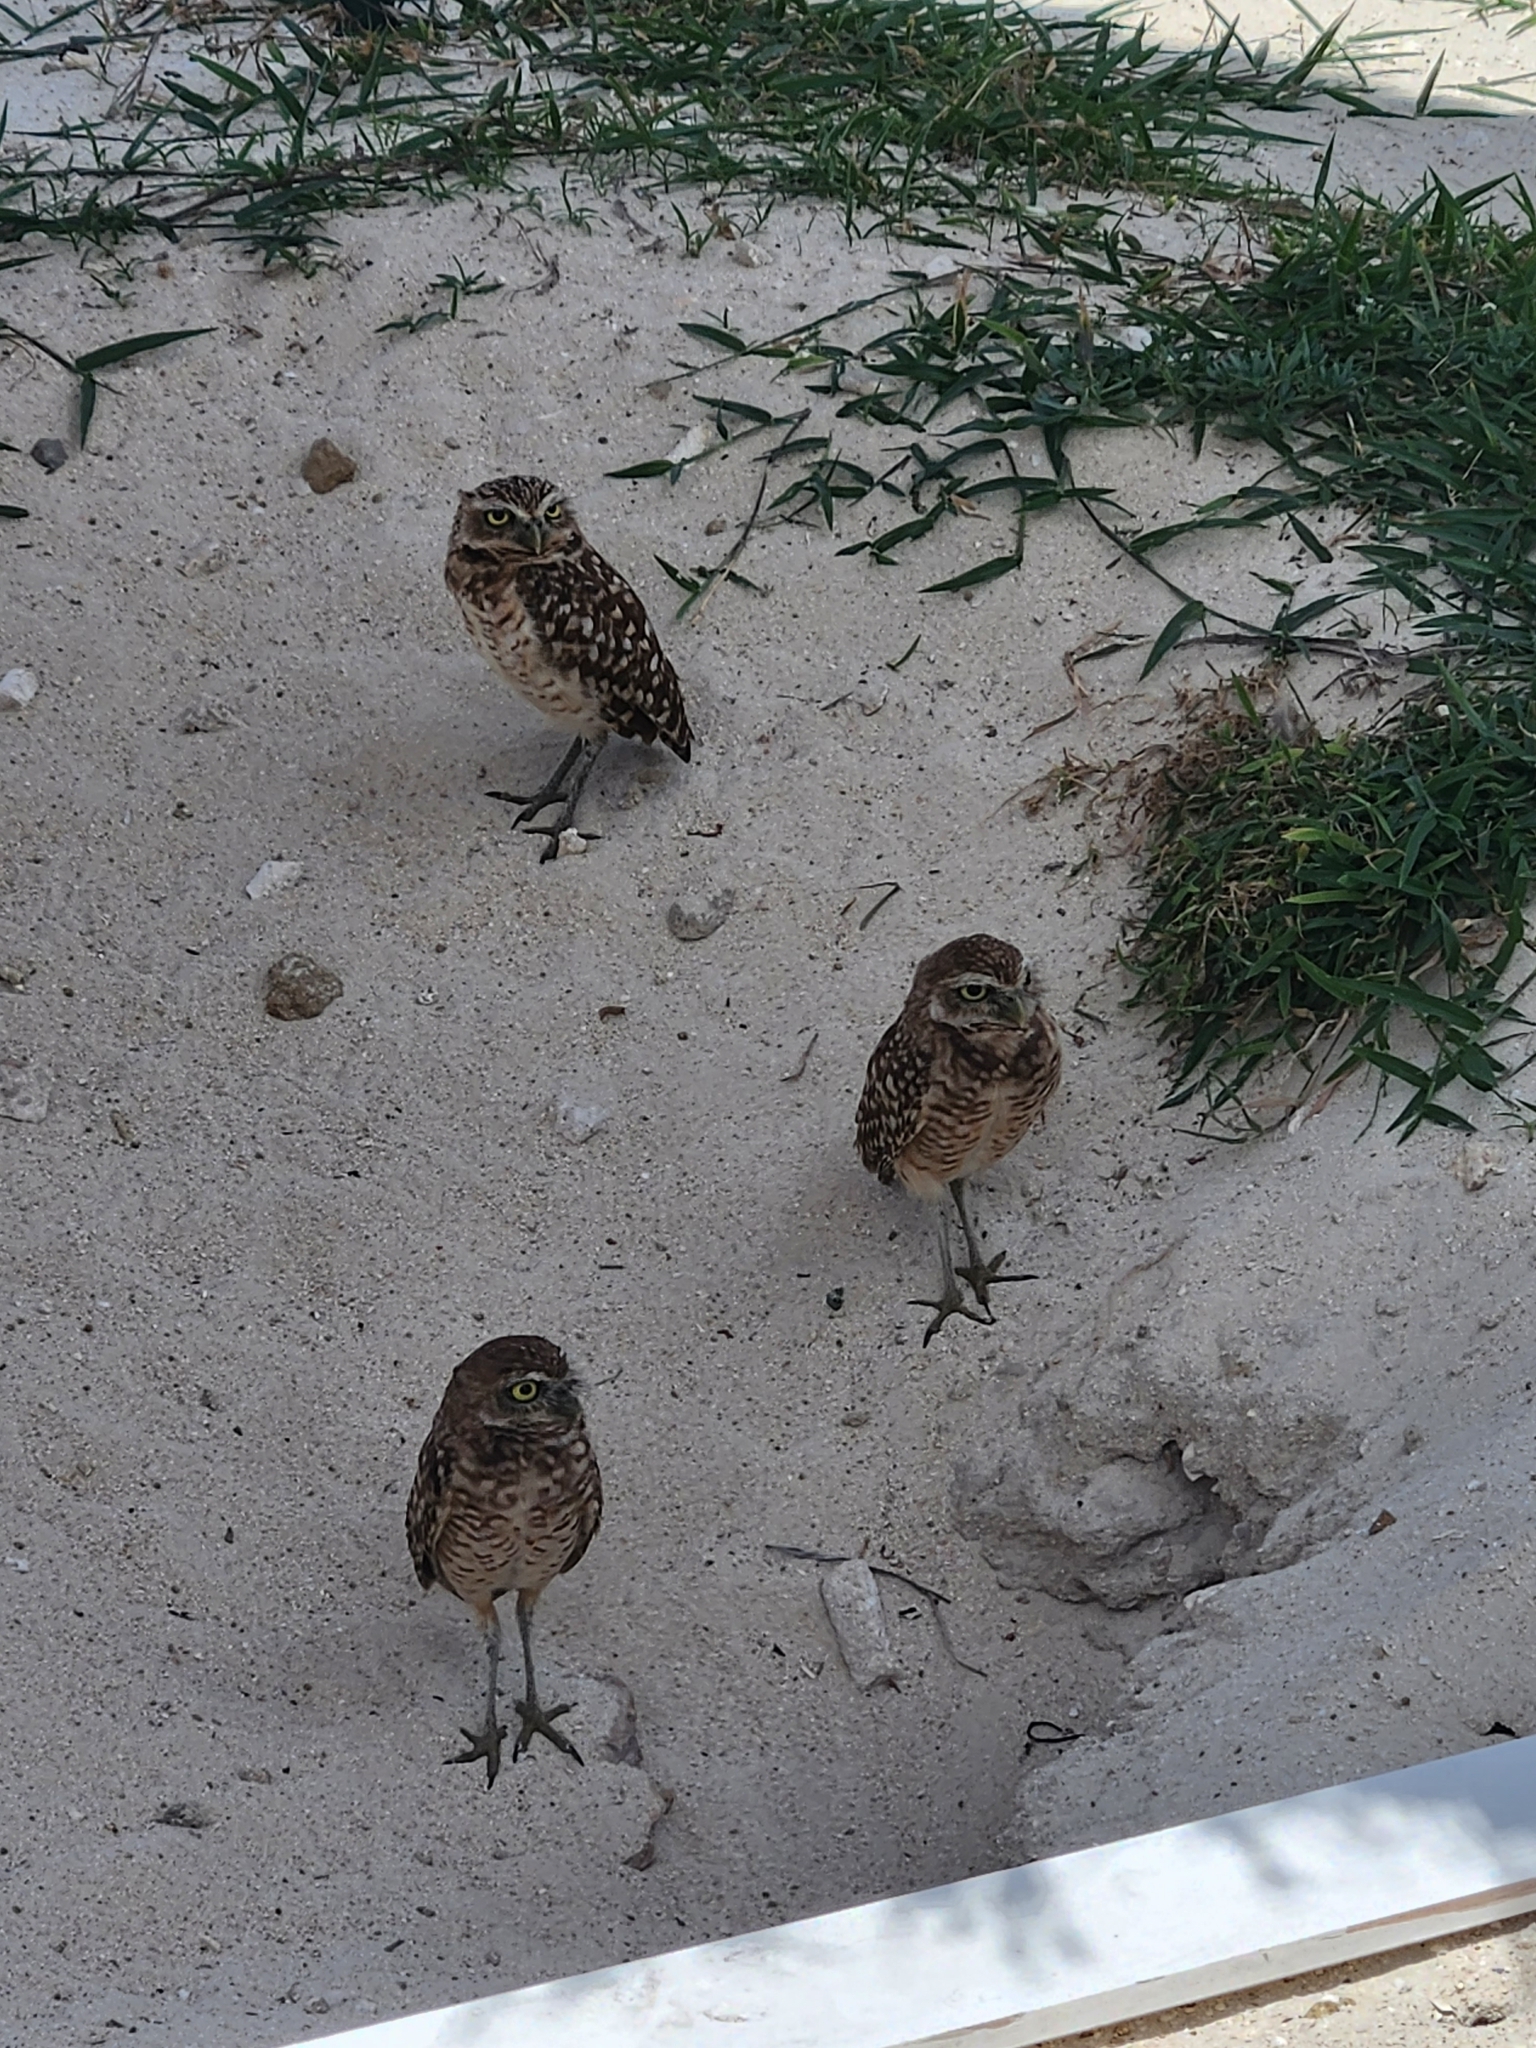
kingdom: Animalia
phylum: Chordata
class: Aves
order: Strigiformes
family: Strigidae
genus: Athene
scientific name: Athene cunicularia
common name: Burrowing owl
